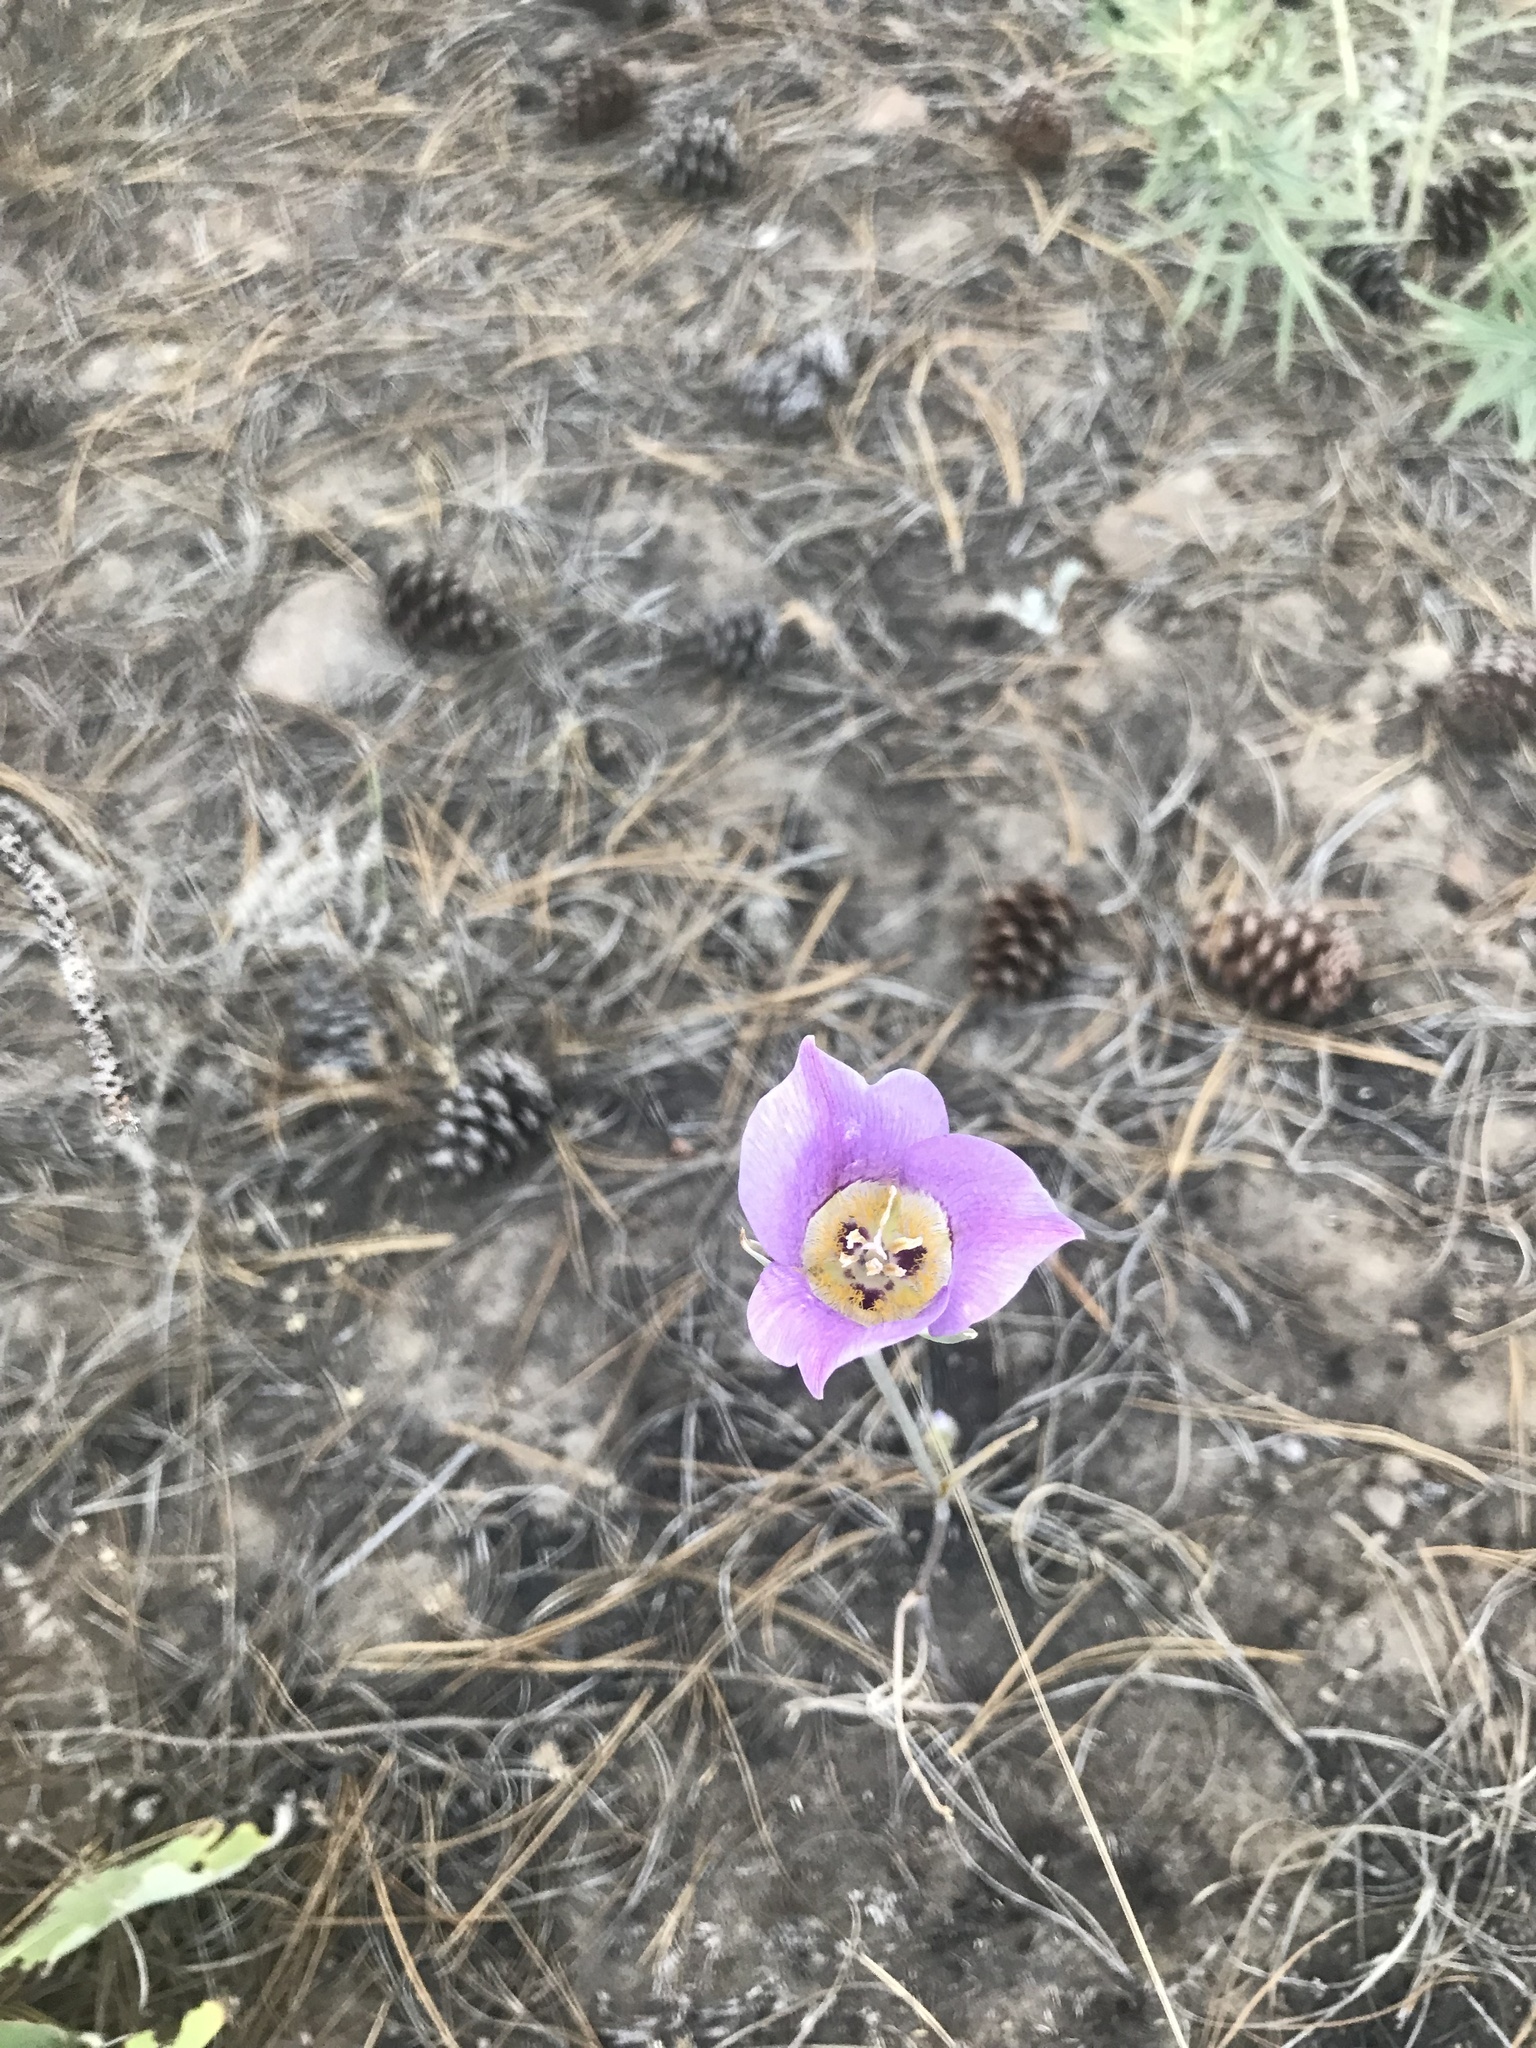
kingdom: Plantae
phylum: Tracheophyta
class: Liliopsida
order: Liliales
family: Liliaceae
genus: Calochortus
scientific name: Calochortus macrocarpus
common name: Green-band mariposa lily
